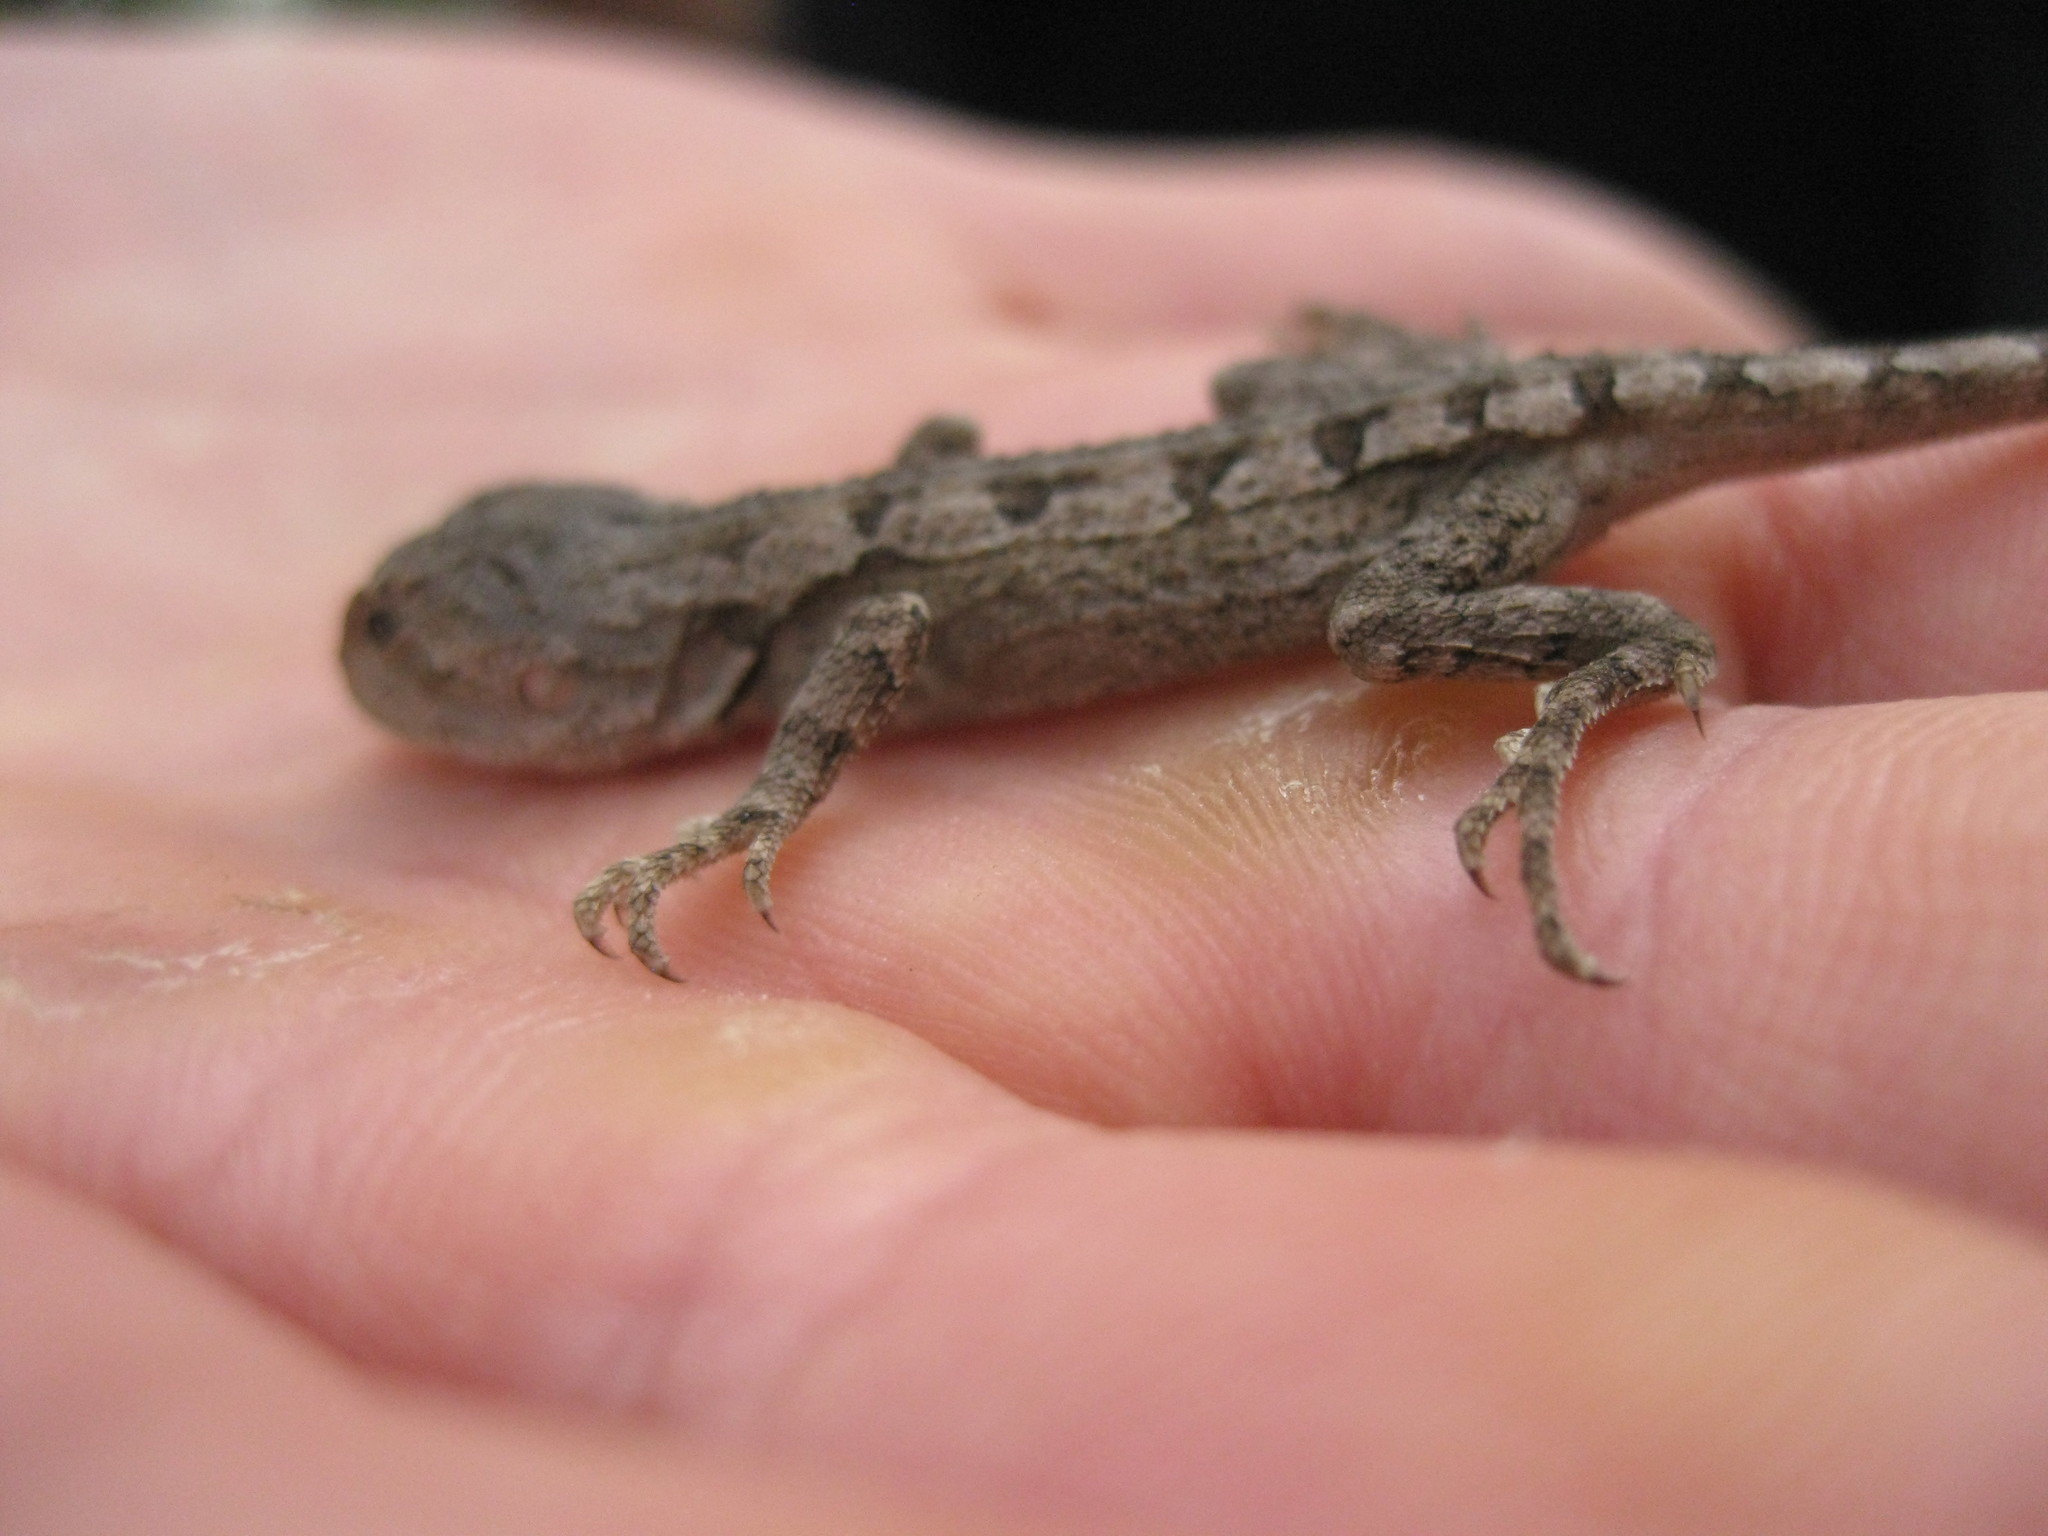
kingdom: Animalia
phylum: Chordata
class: Squamata
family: Agamidae
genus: Amphibolurus
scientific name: Amphibolurus muricatus
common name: Jacky lizard
